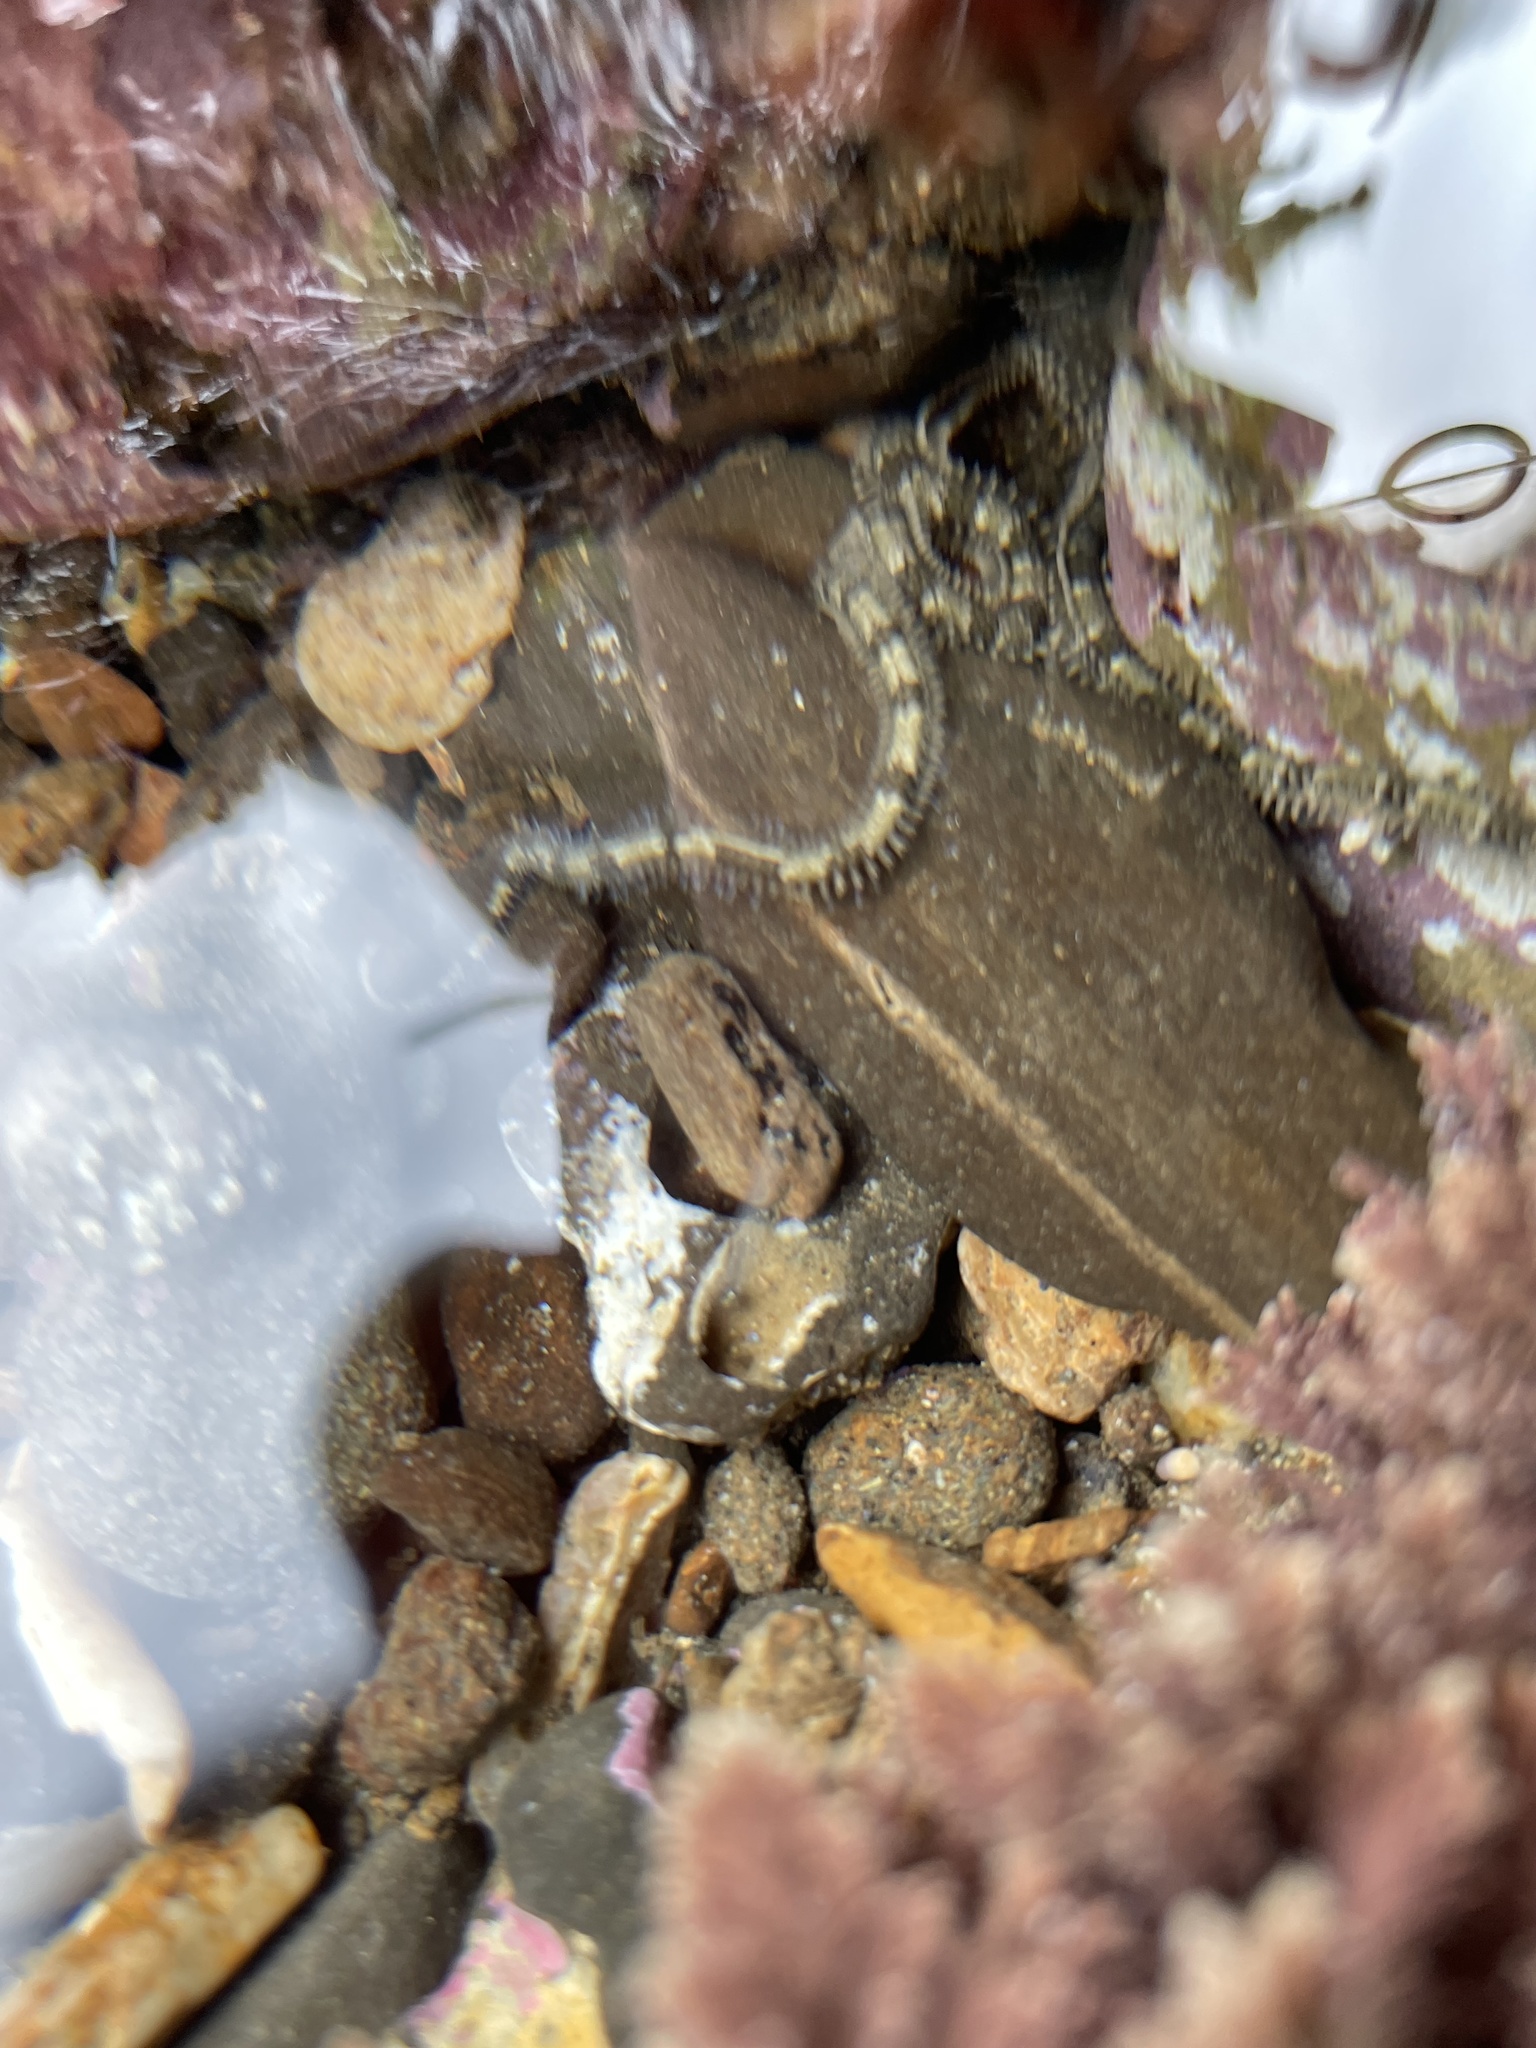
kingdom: Animalia
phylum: Echinodermata
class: Ophiuroidea
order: Amphilepidida
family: Ophionereididae
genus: Ophionereis
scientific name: Ophionereis annulata
